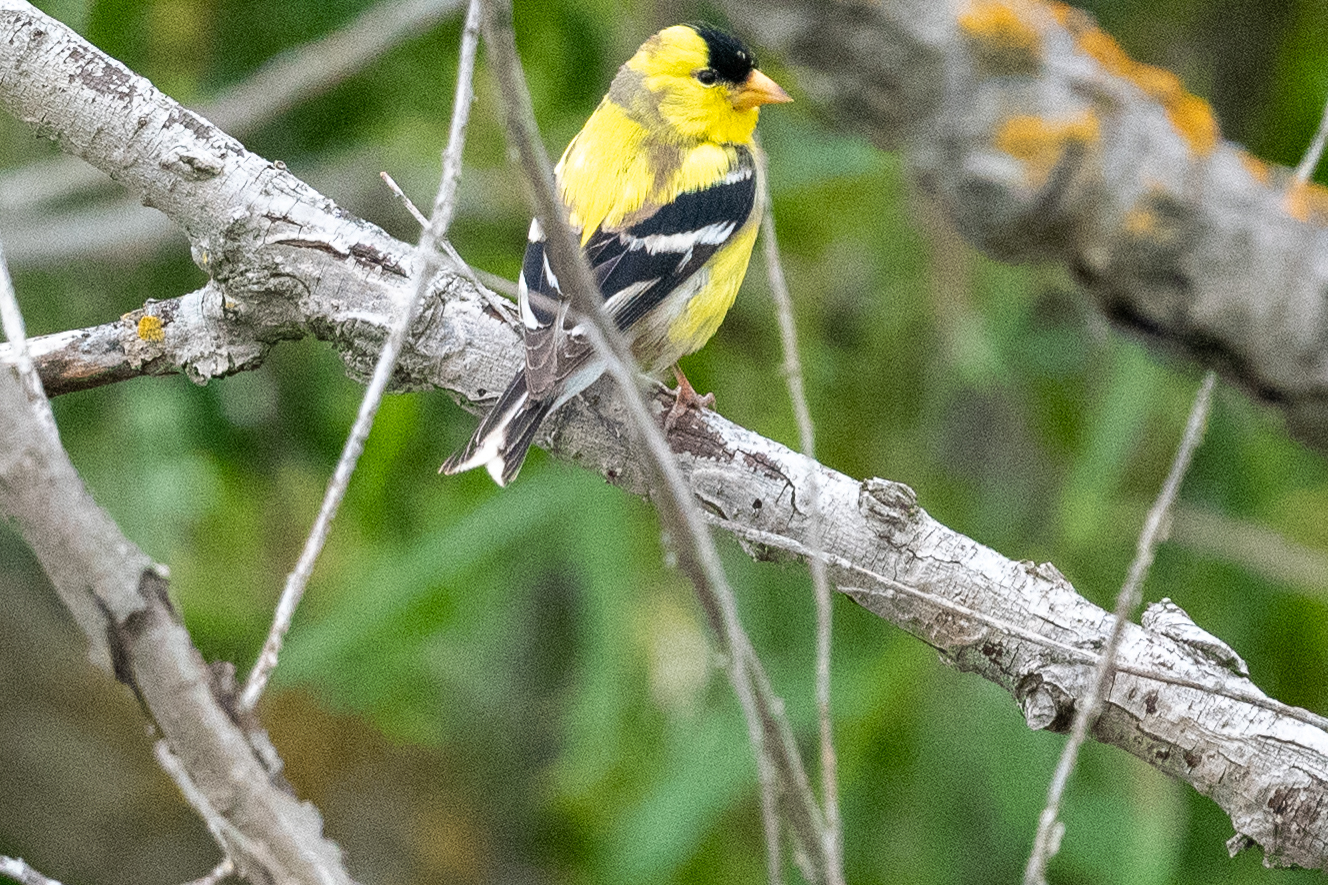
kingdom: Animalia
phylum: Chordata
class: Aves
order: Passeriformes
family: Fringillidae
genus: Spinus
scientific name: Spinus tristis
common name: American goldfinch
